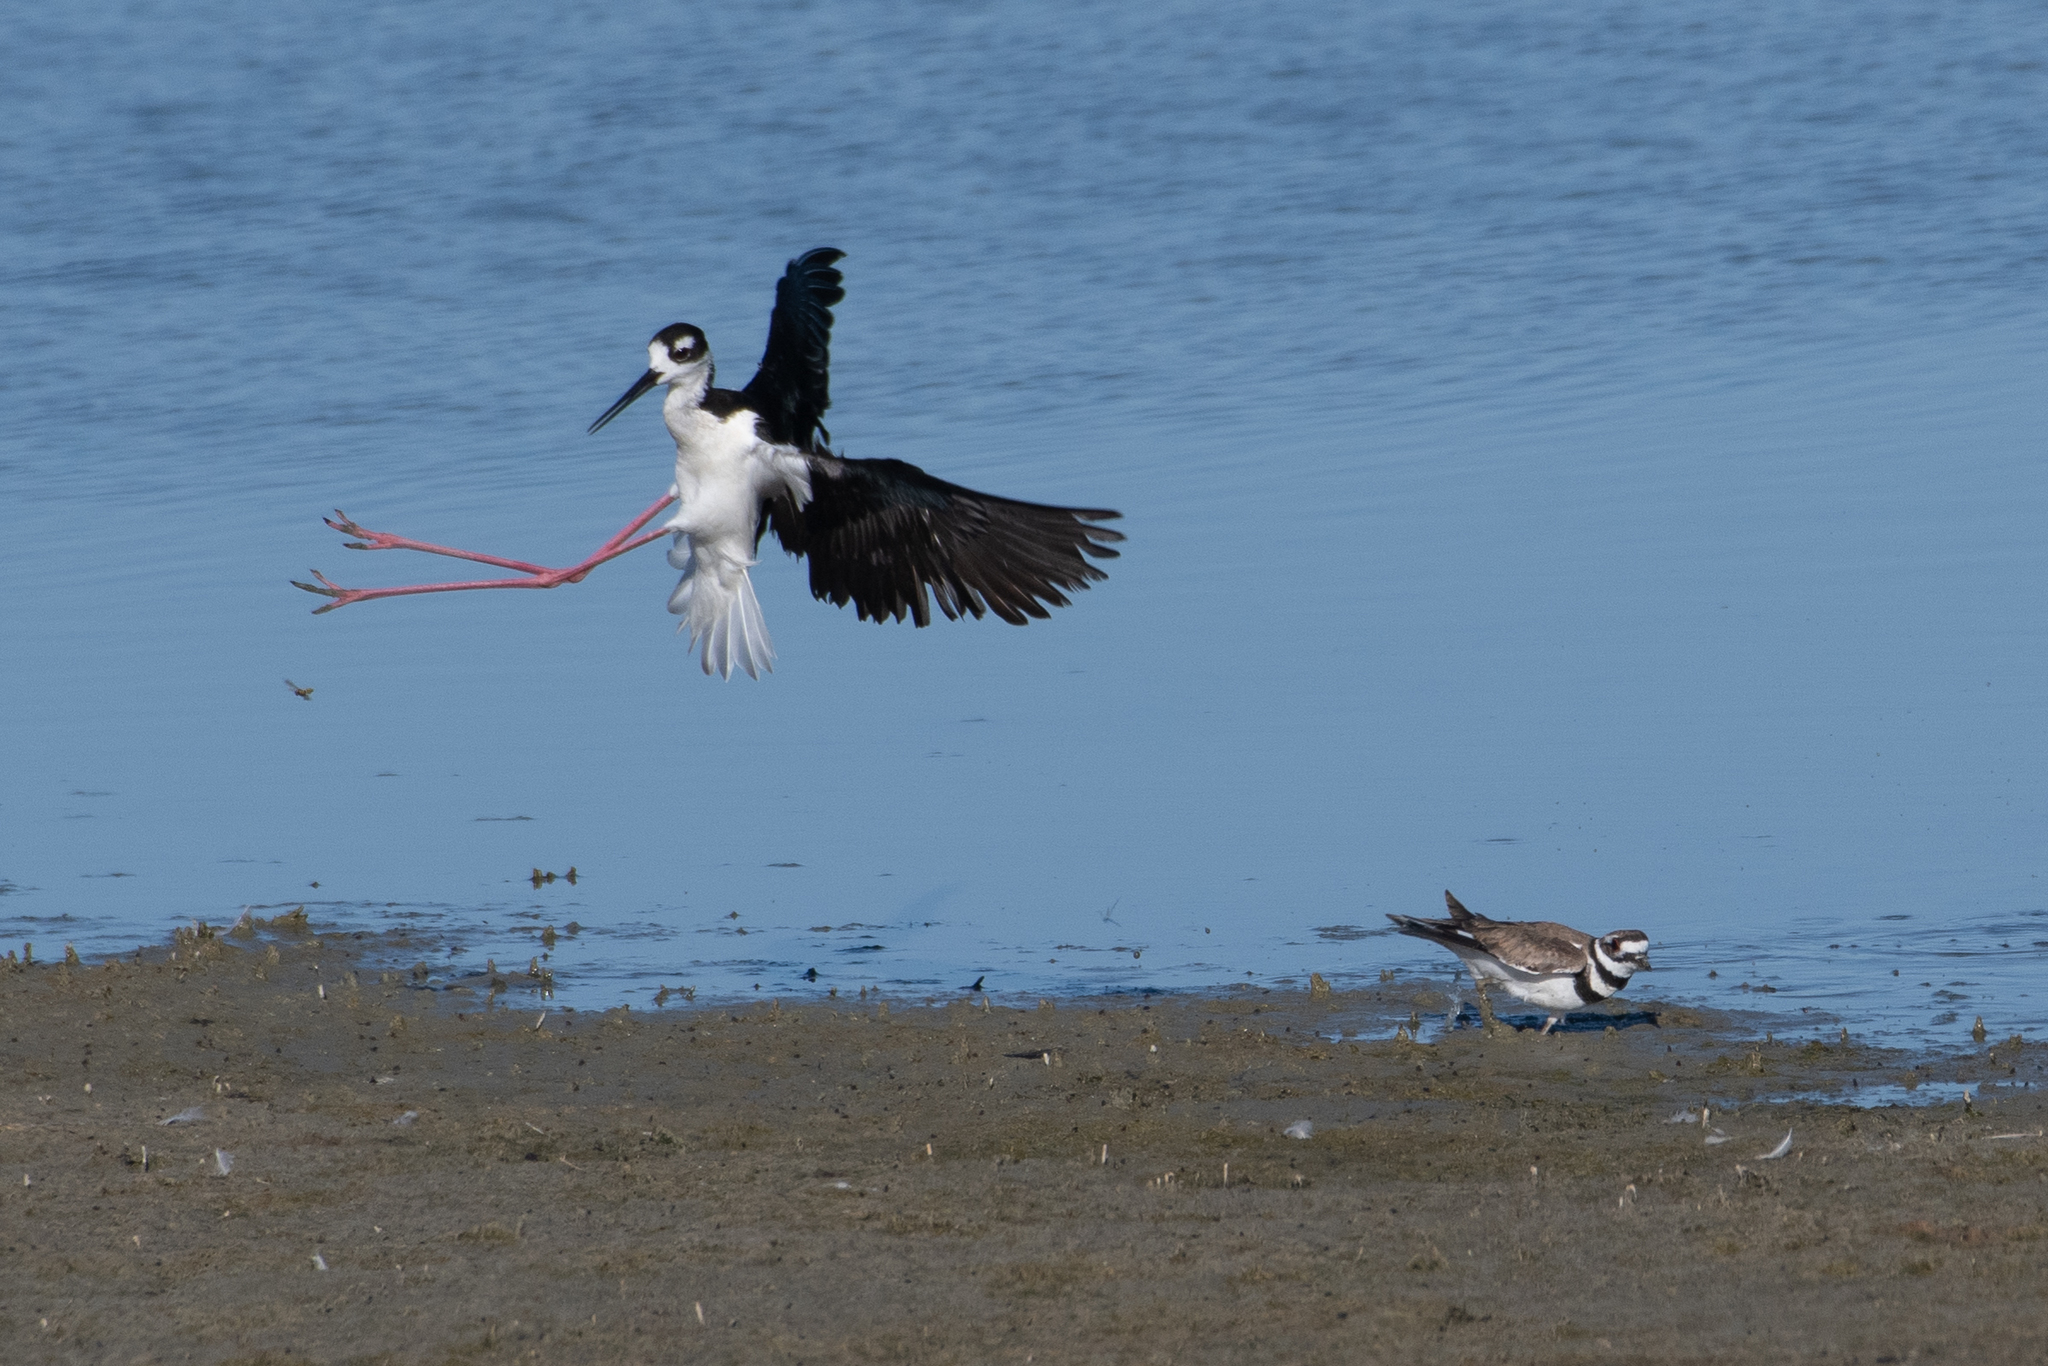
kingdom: Animalia
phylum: Chordata
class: Aves
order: Charadriiformes
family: Recurvirostridae
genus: Himantopus
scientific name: Himantopus mexicanus
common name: Black-necked stilt
